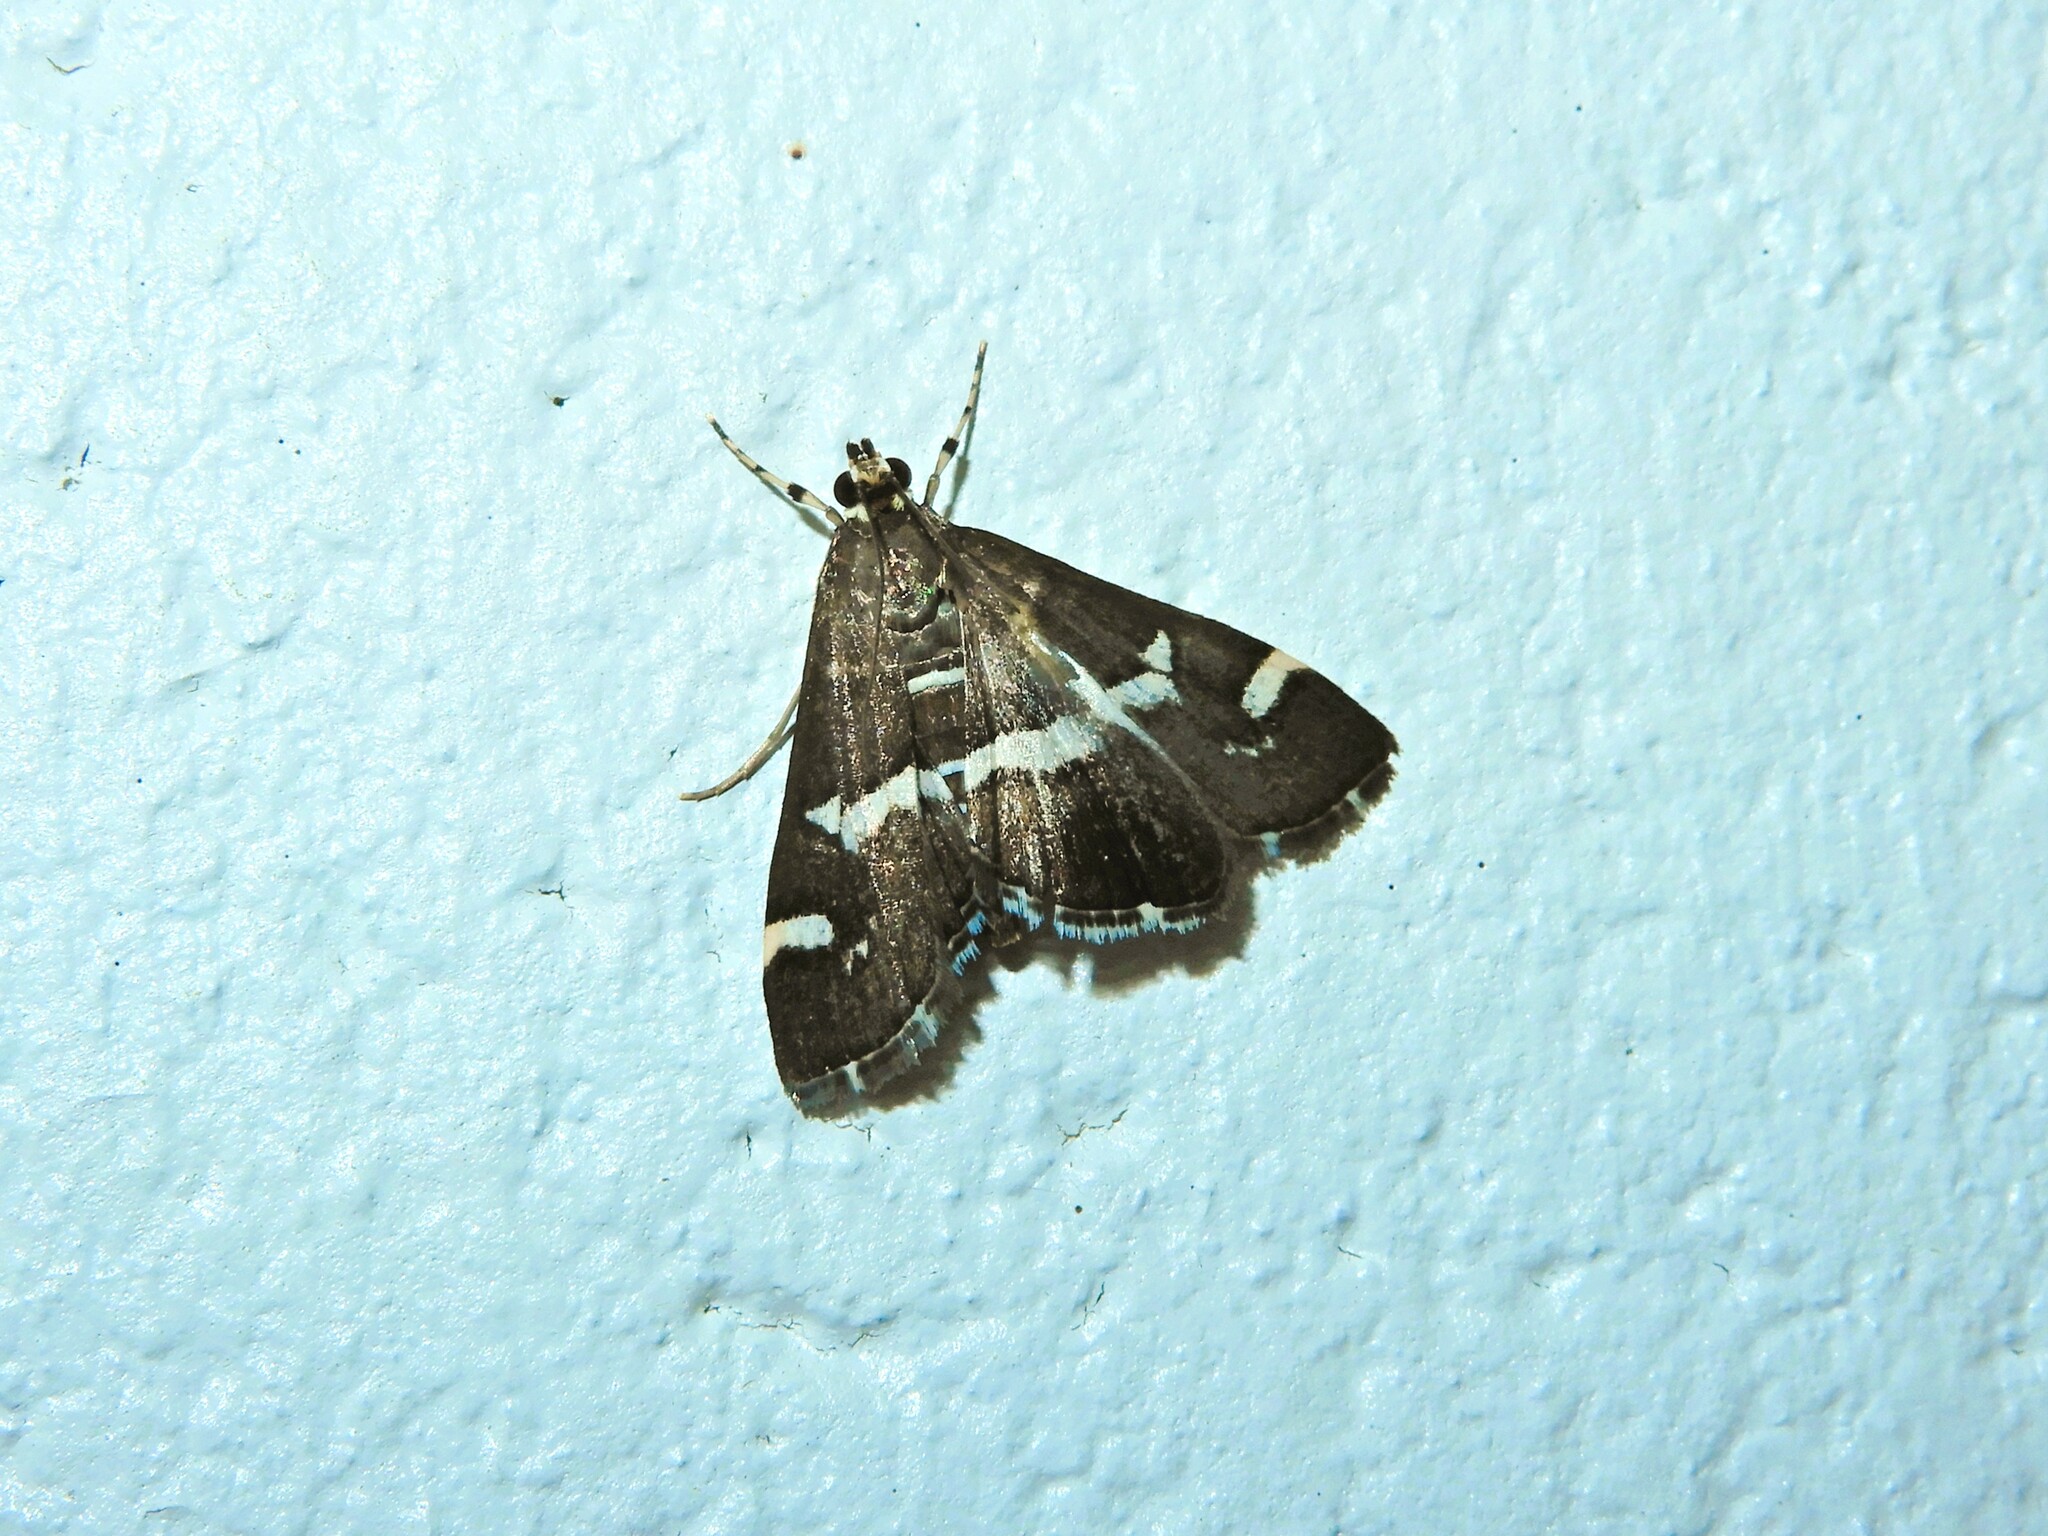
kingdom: Animalia
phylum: Arthropoda
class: Insecta
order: Lepidoptera
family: Crambidae
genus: Spoladea
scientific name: Spoladea recurvalis
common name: Beet webworm moth
